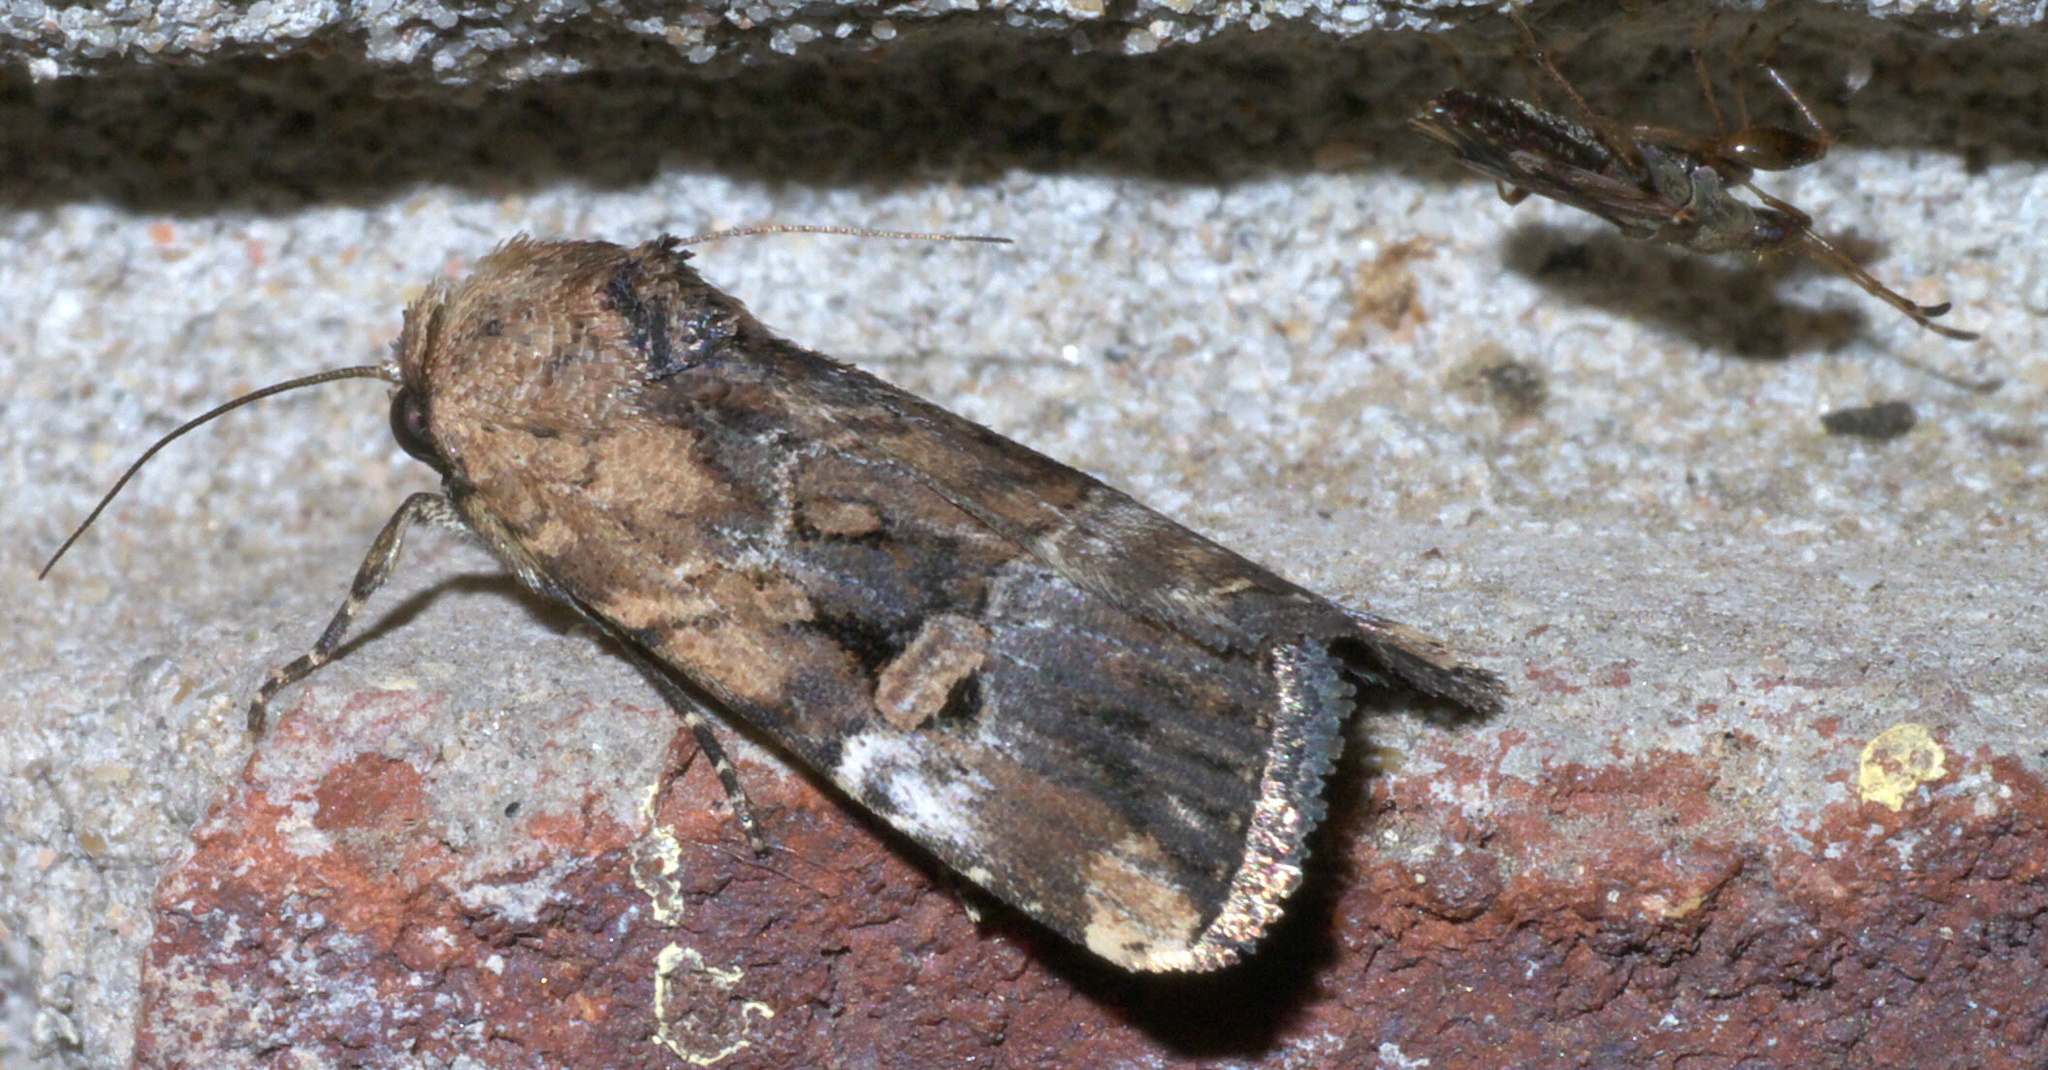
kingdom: Animalia
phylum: Arthropoda
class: Insecta
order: Lepidoptera
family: Noctuidae
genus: Elaphria
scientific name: Elaphria chalcedonia
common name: Chalcedony midget
